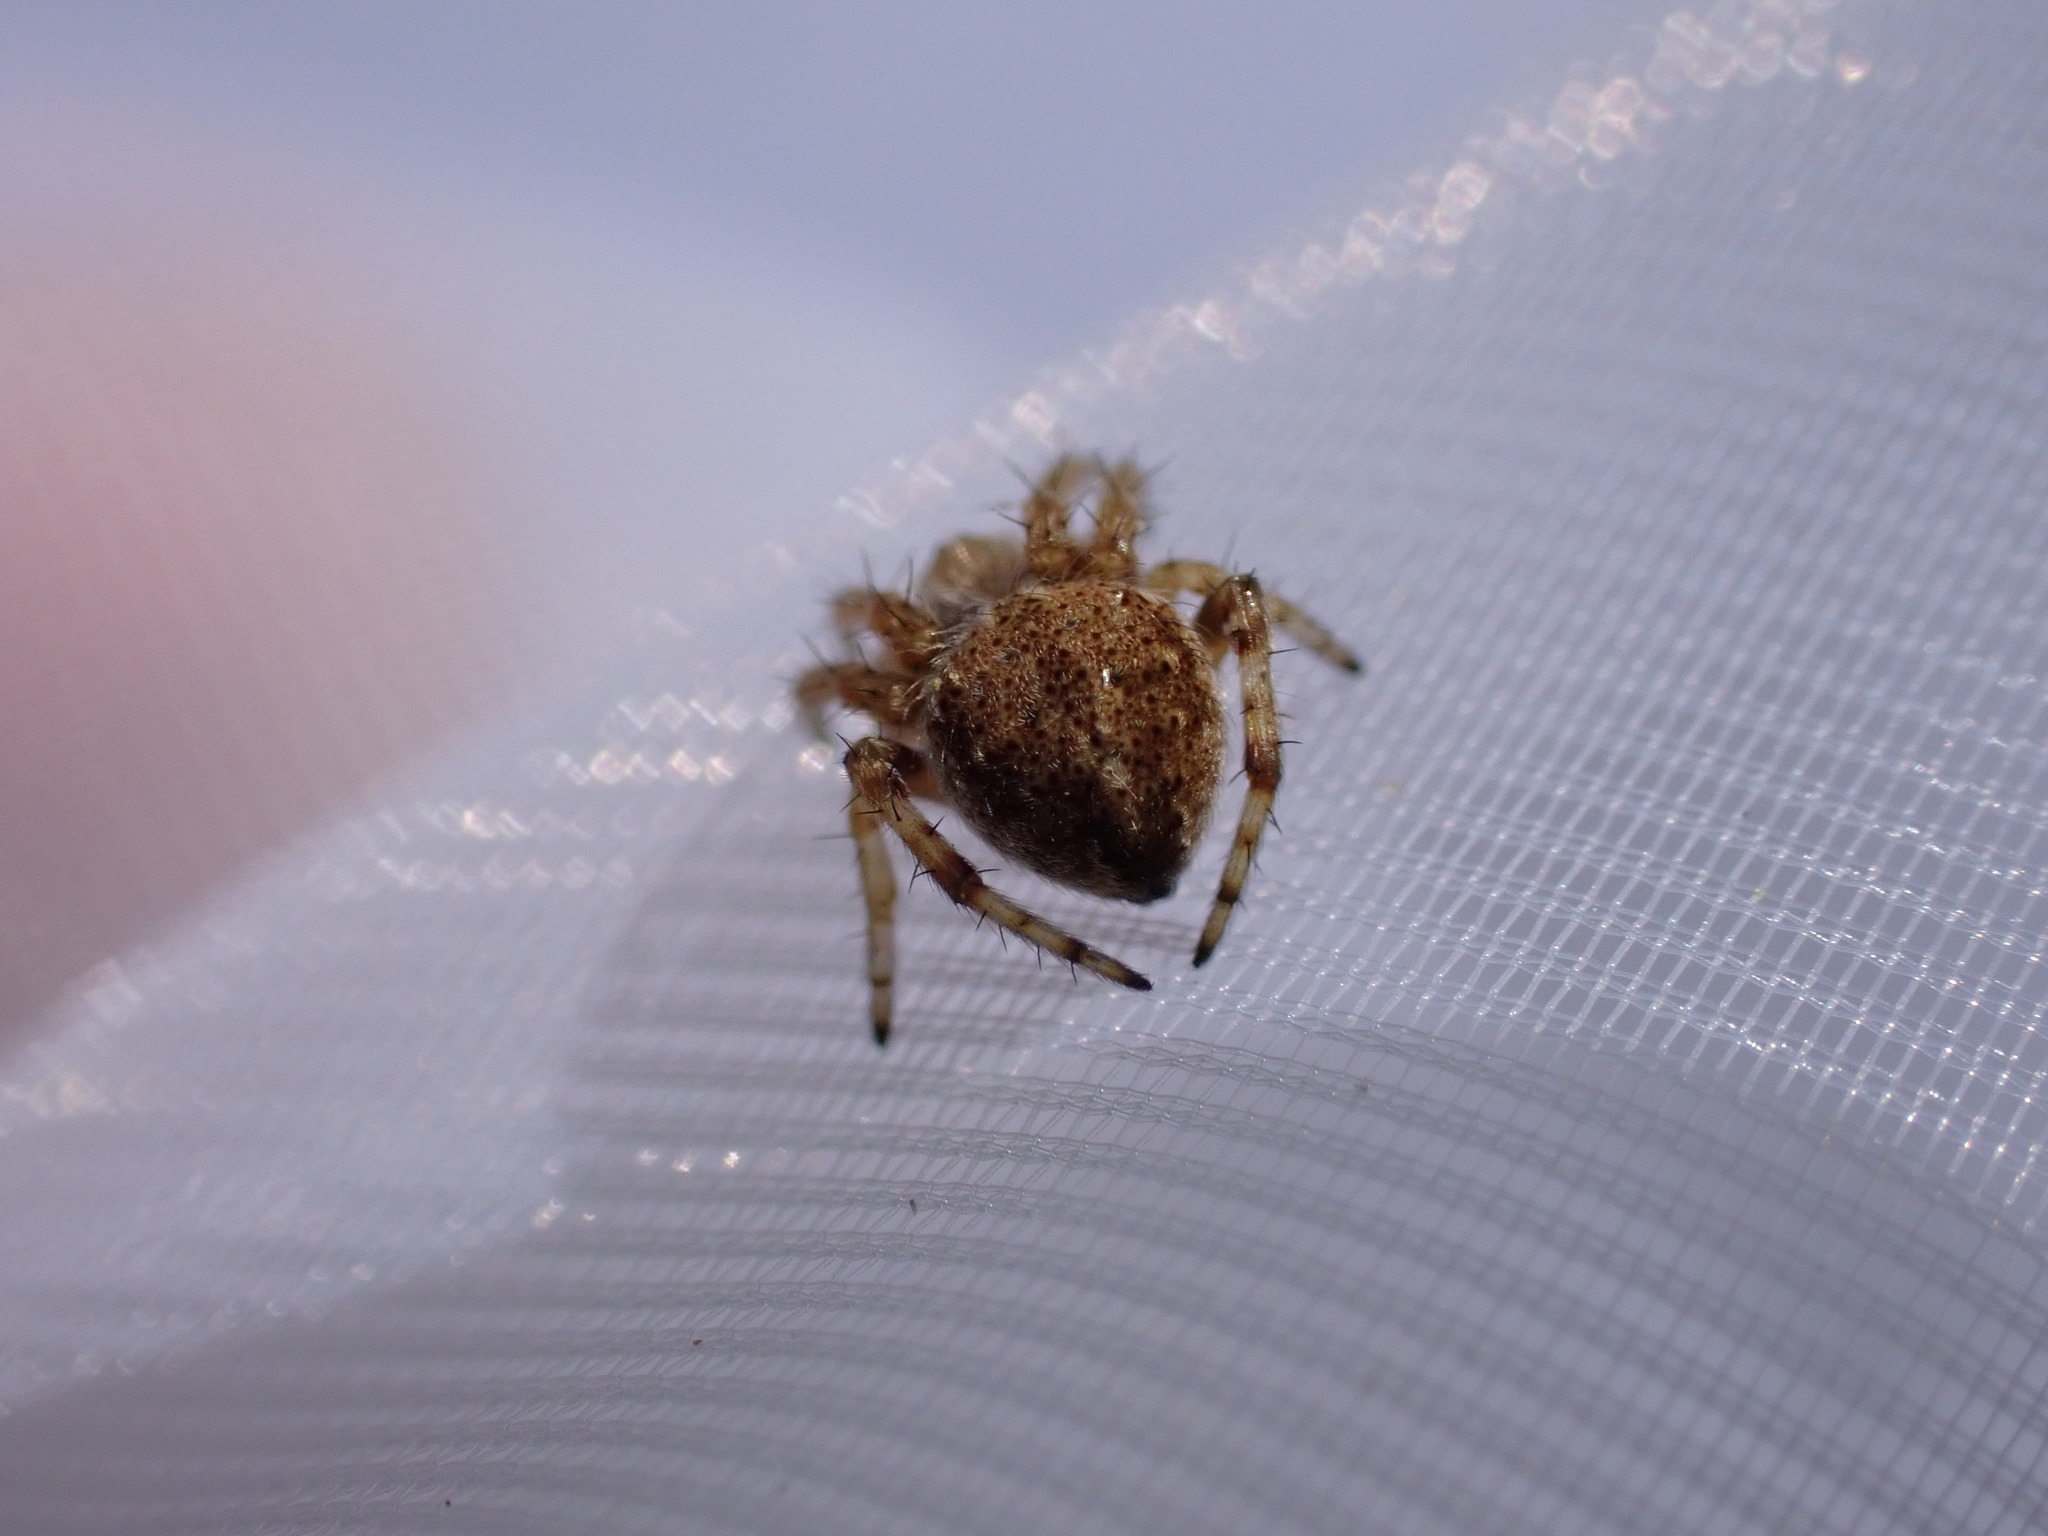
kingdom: Animalia
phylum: Arthropoda
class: Arachnida
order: Araneae
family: Araneidae
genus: Agalenatea
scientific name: Agalenatea redii
